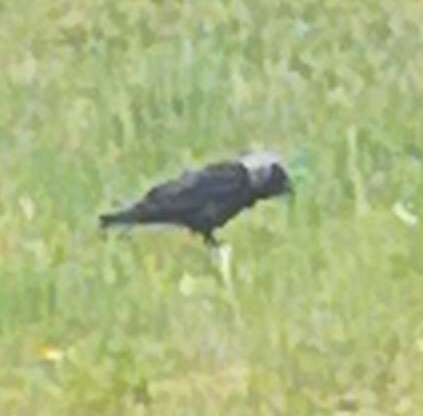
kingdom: Animalia
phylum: Chordata
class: Aves
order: Passeriformes
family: Corvidae
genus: Coloeus
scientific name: Coloeus monedula
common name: Western jackdaw
